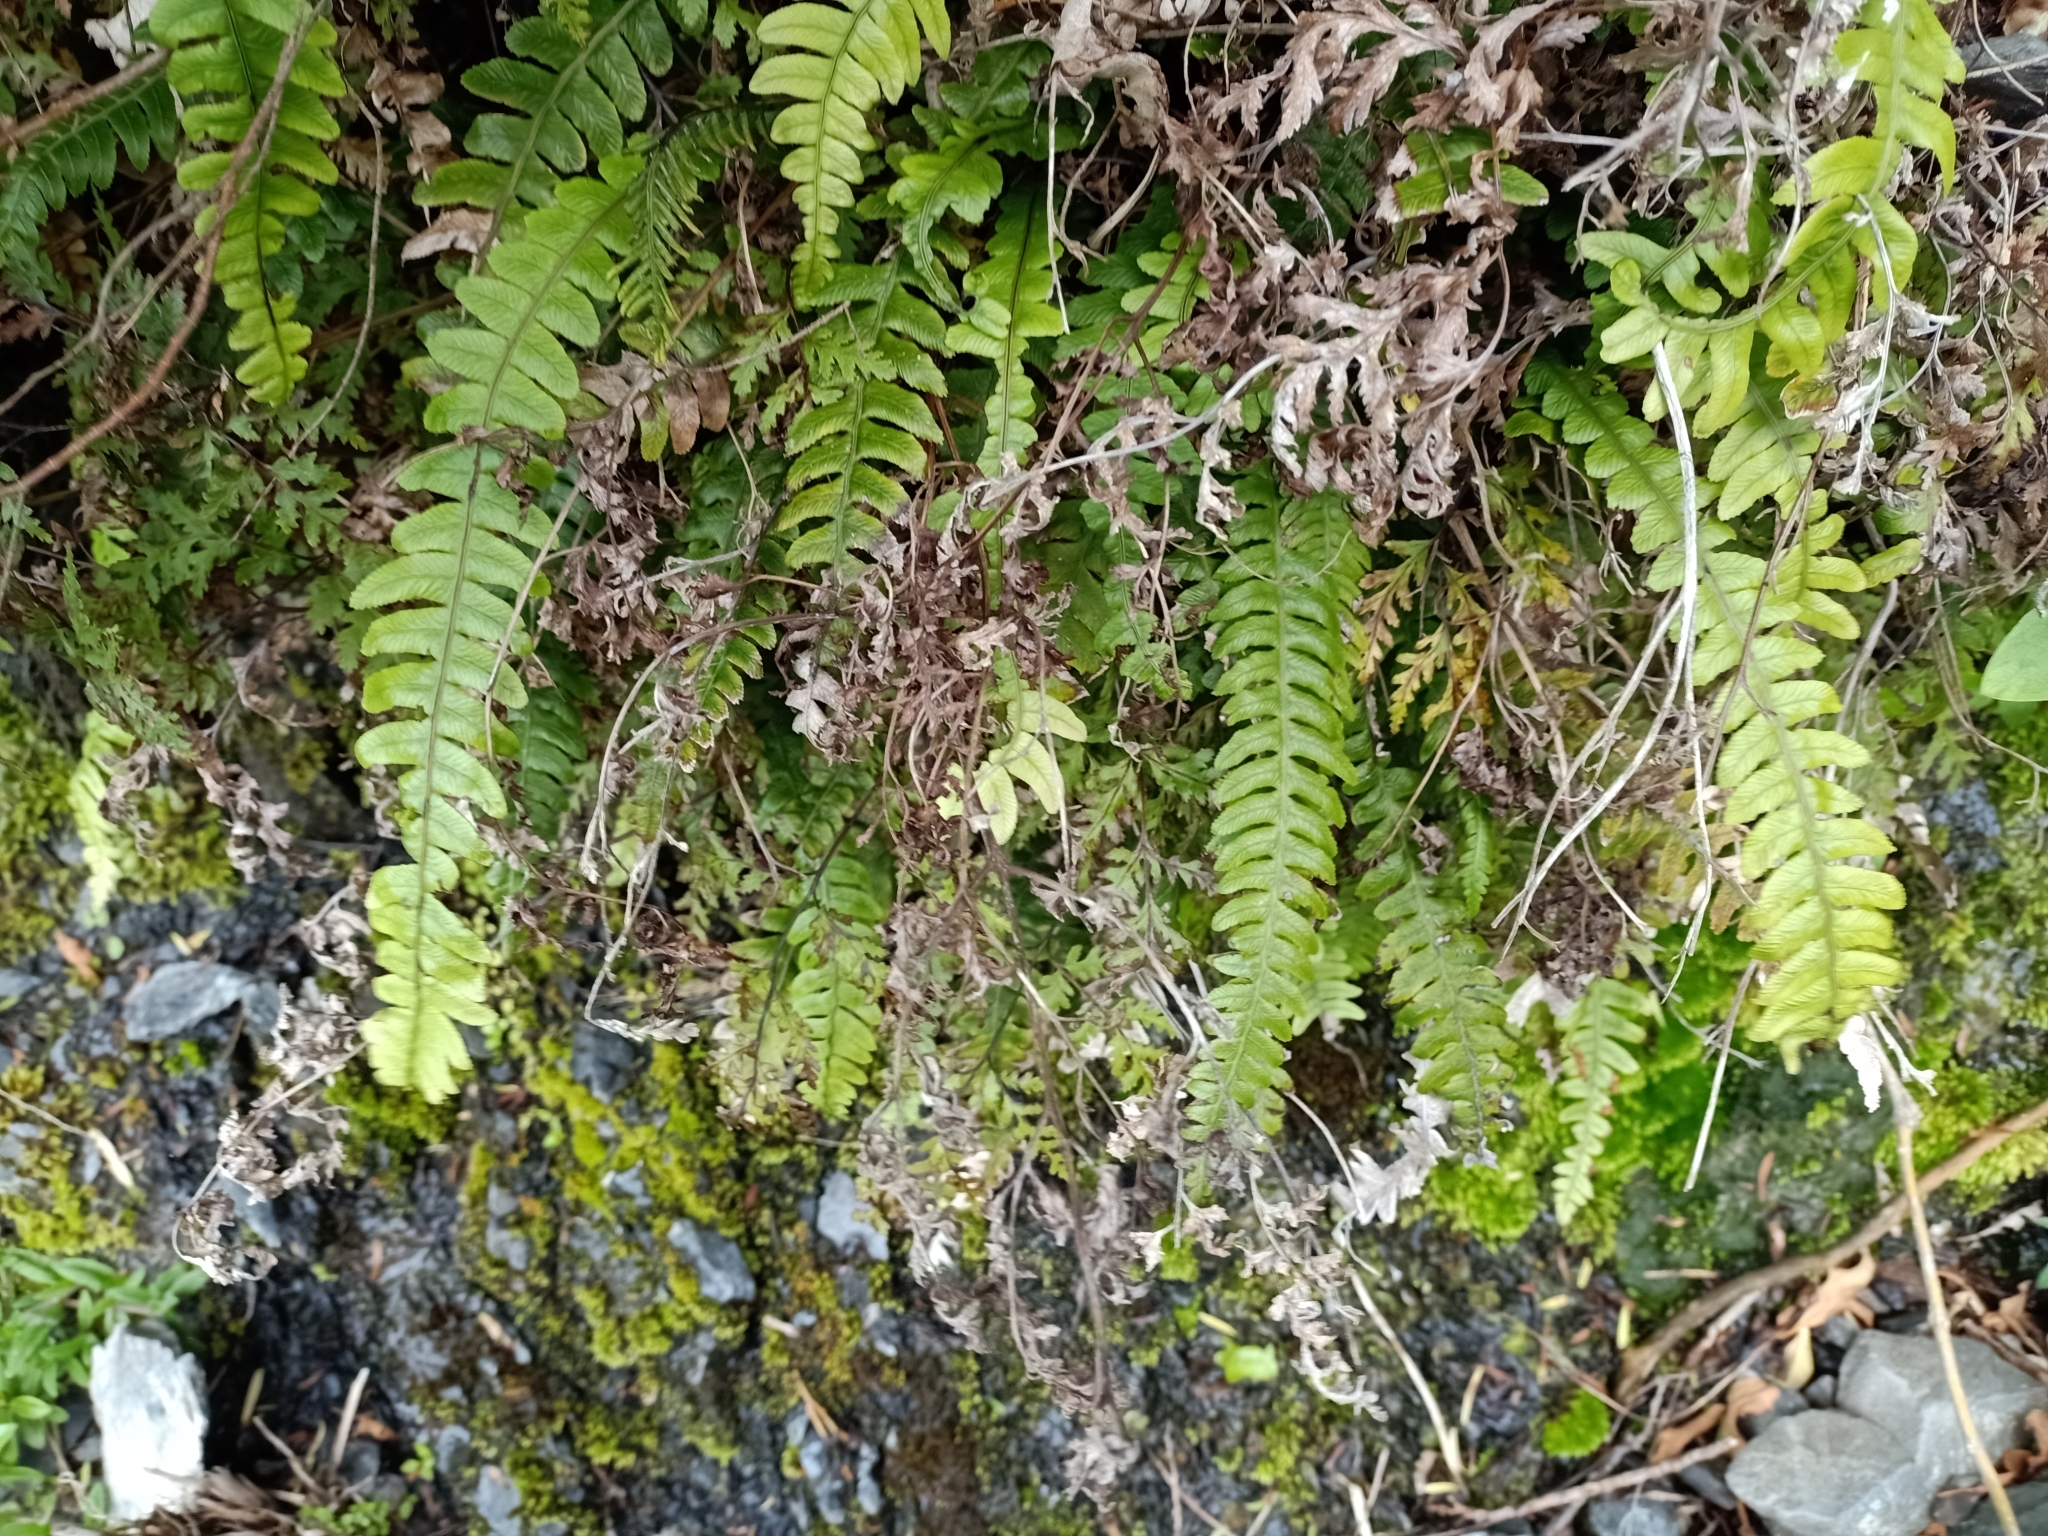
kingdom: Plantae
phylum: Tracheophyta
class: Polypodiopsida
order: Polypodiales
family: Blechnaceae
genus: Austroblechnum
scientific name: Austroblechnum lanceolatum
